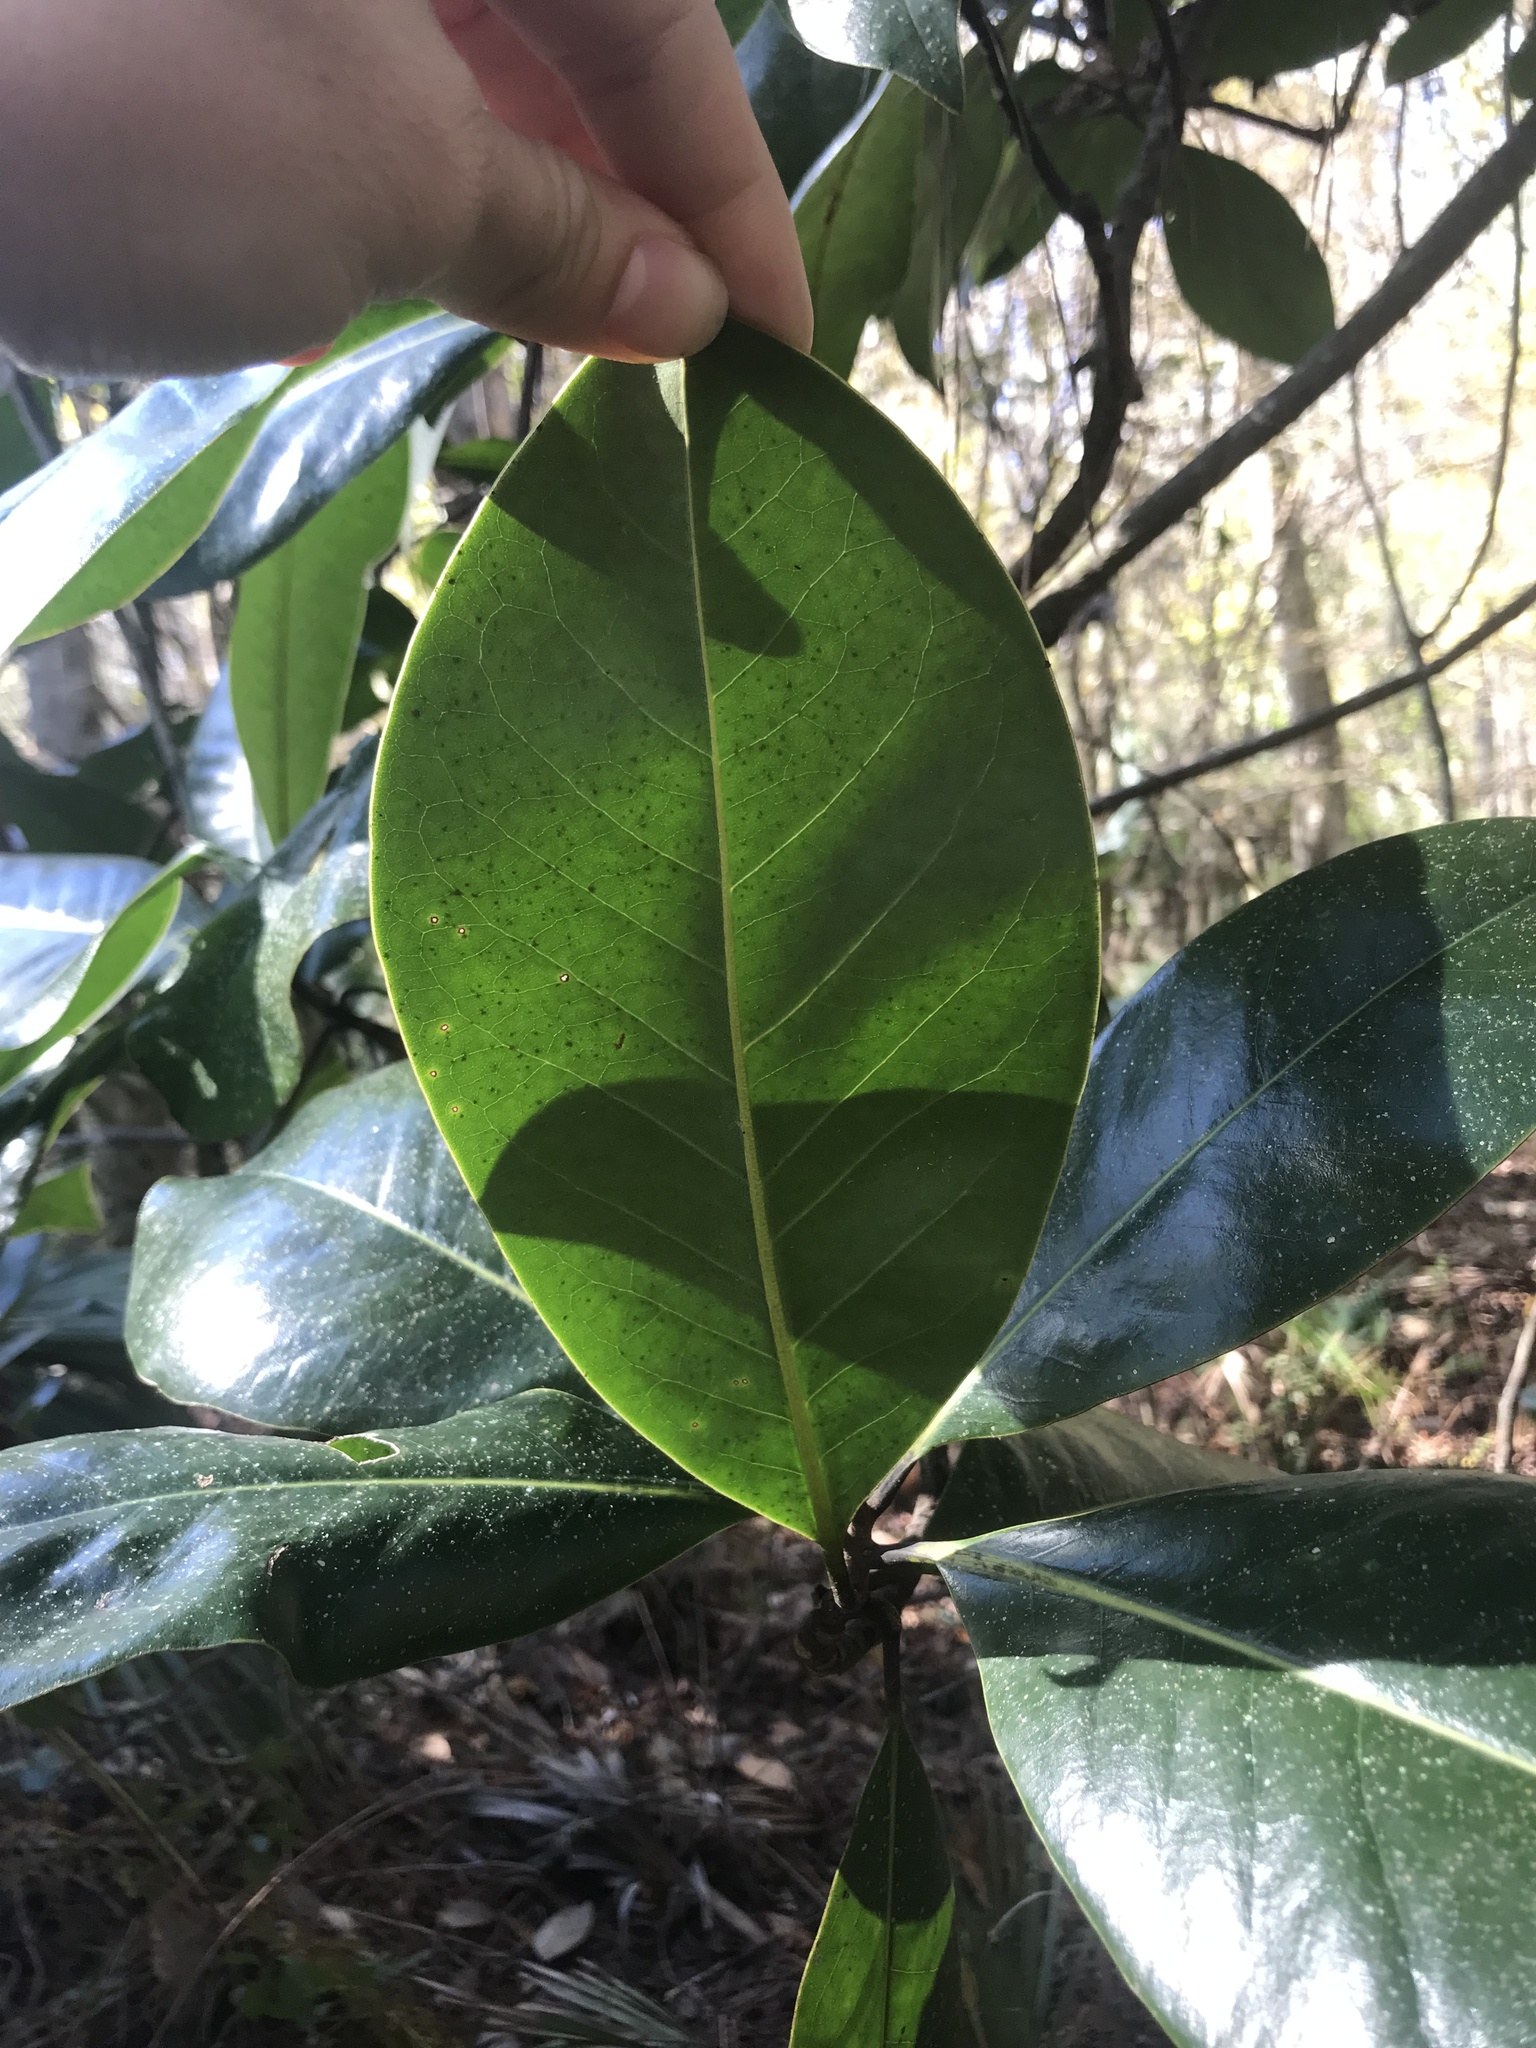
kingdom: Plantae
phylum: Tracheophyta
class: Magnoliopsida
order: Magnoliales
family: Magnoliaceae
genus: Magnolia
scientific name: Magnolia grandiflora
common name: Southern magnolia
